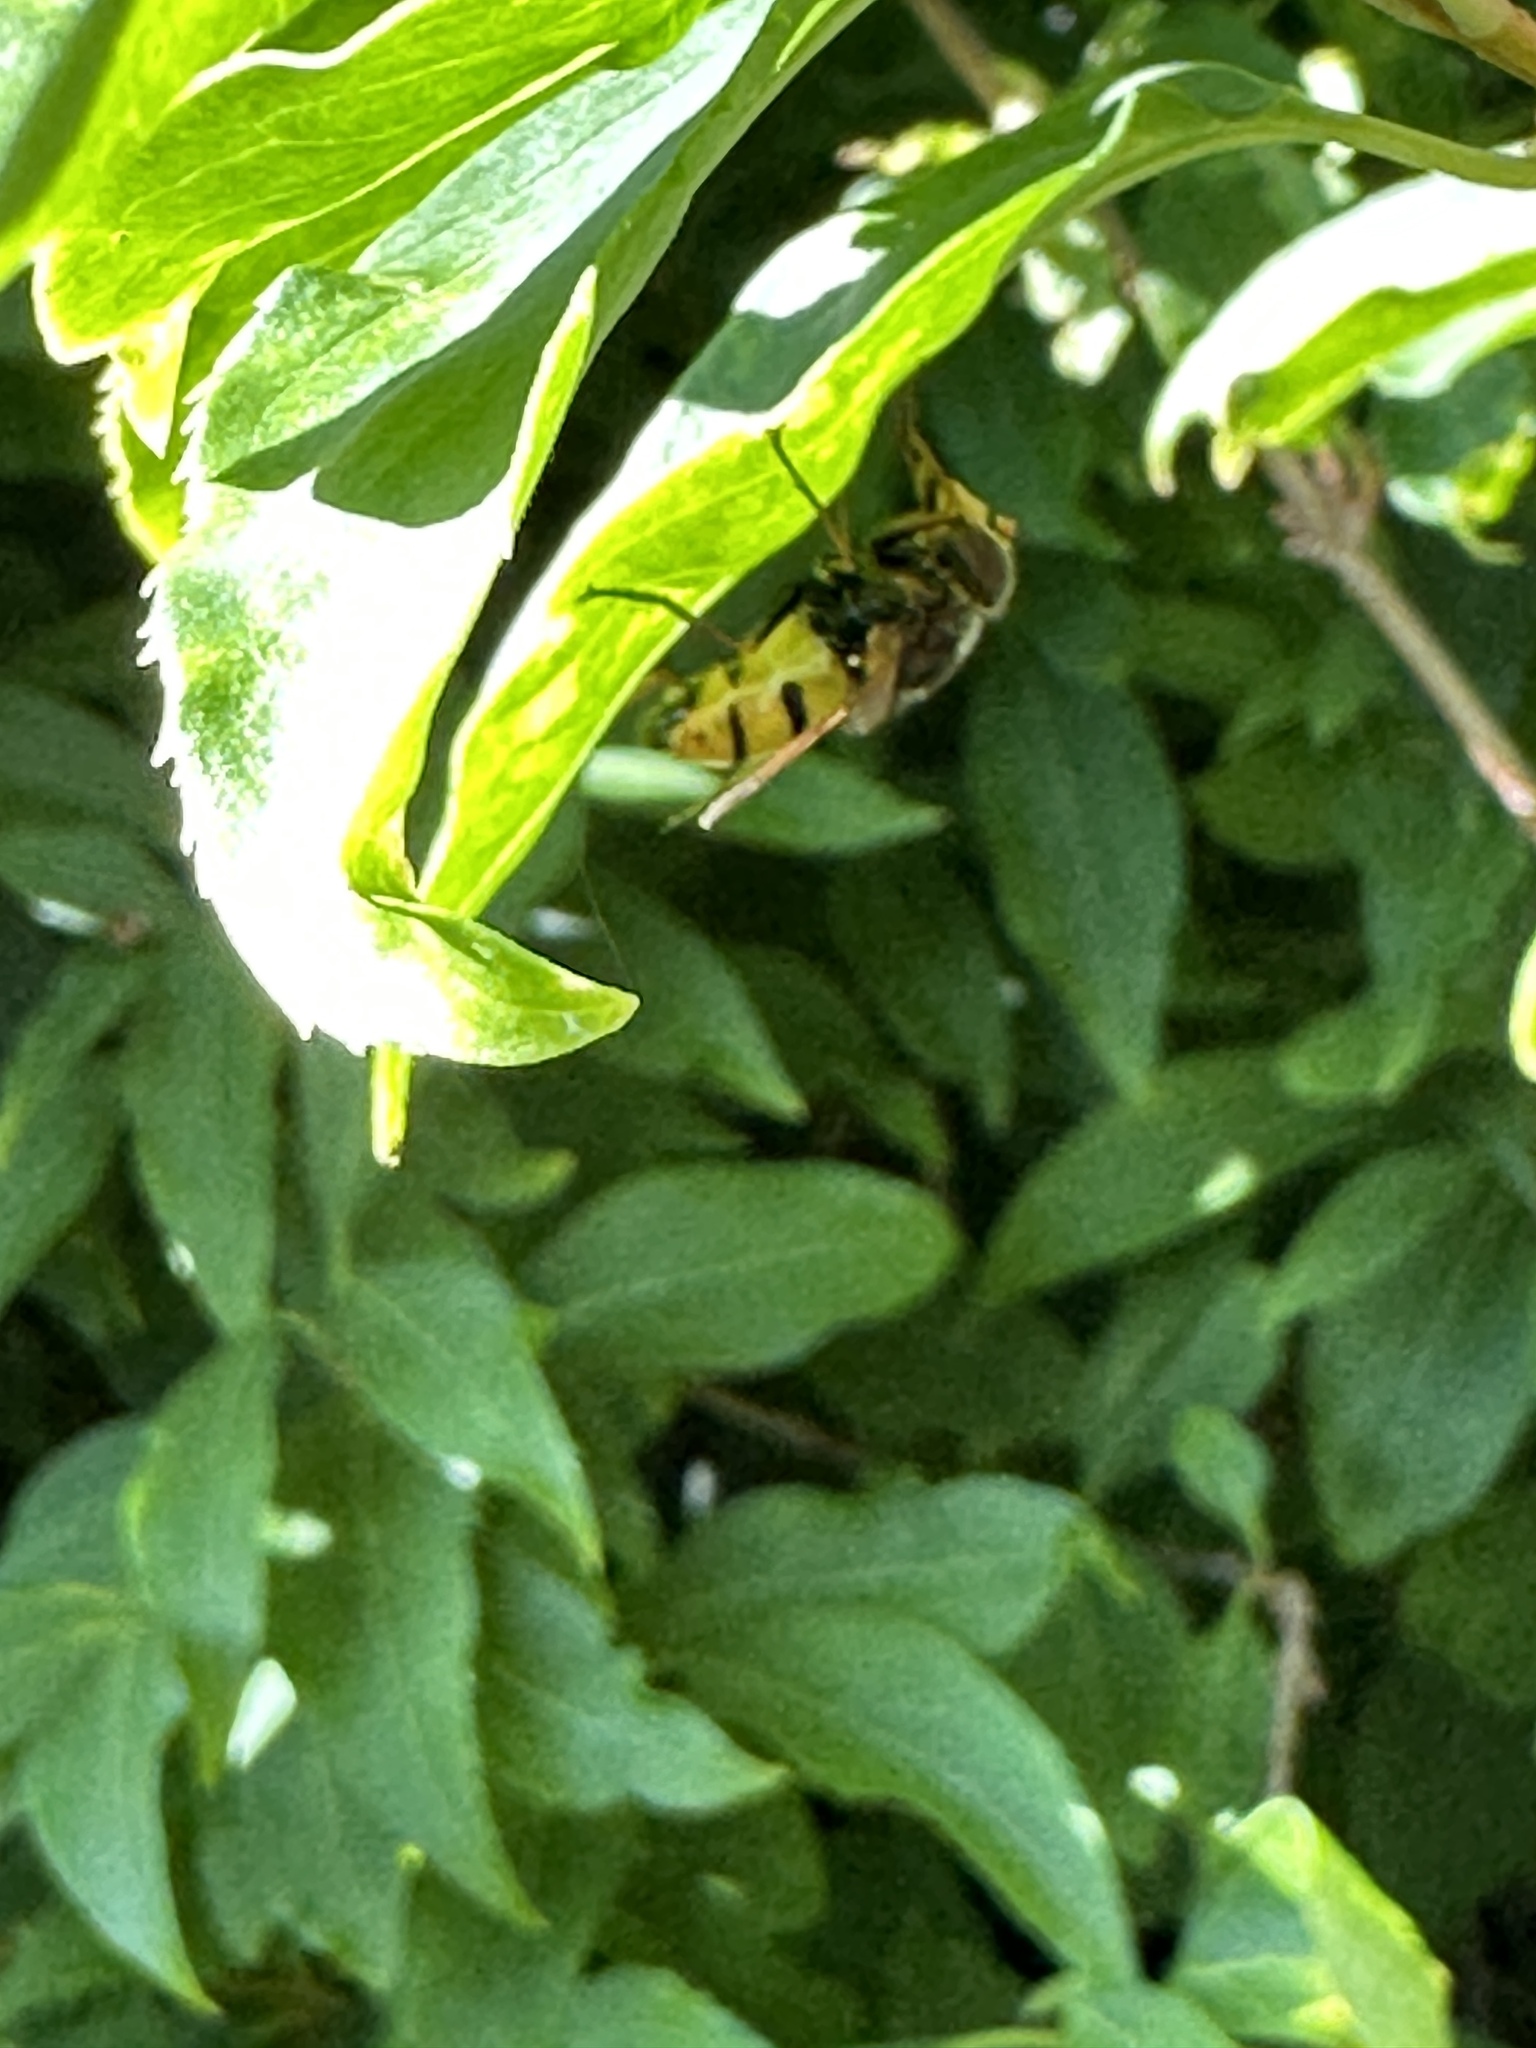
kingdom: Animalia
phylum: Arthropoda
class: Insecta
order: Diptera
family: Syrphidae
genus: Volucella
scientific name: Volucella inanis
